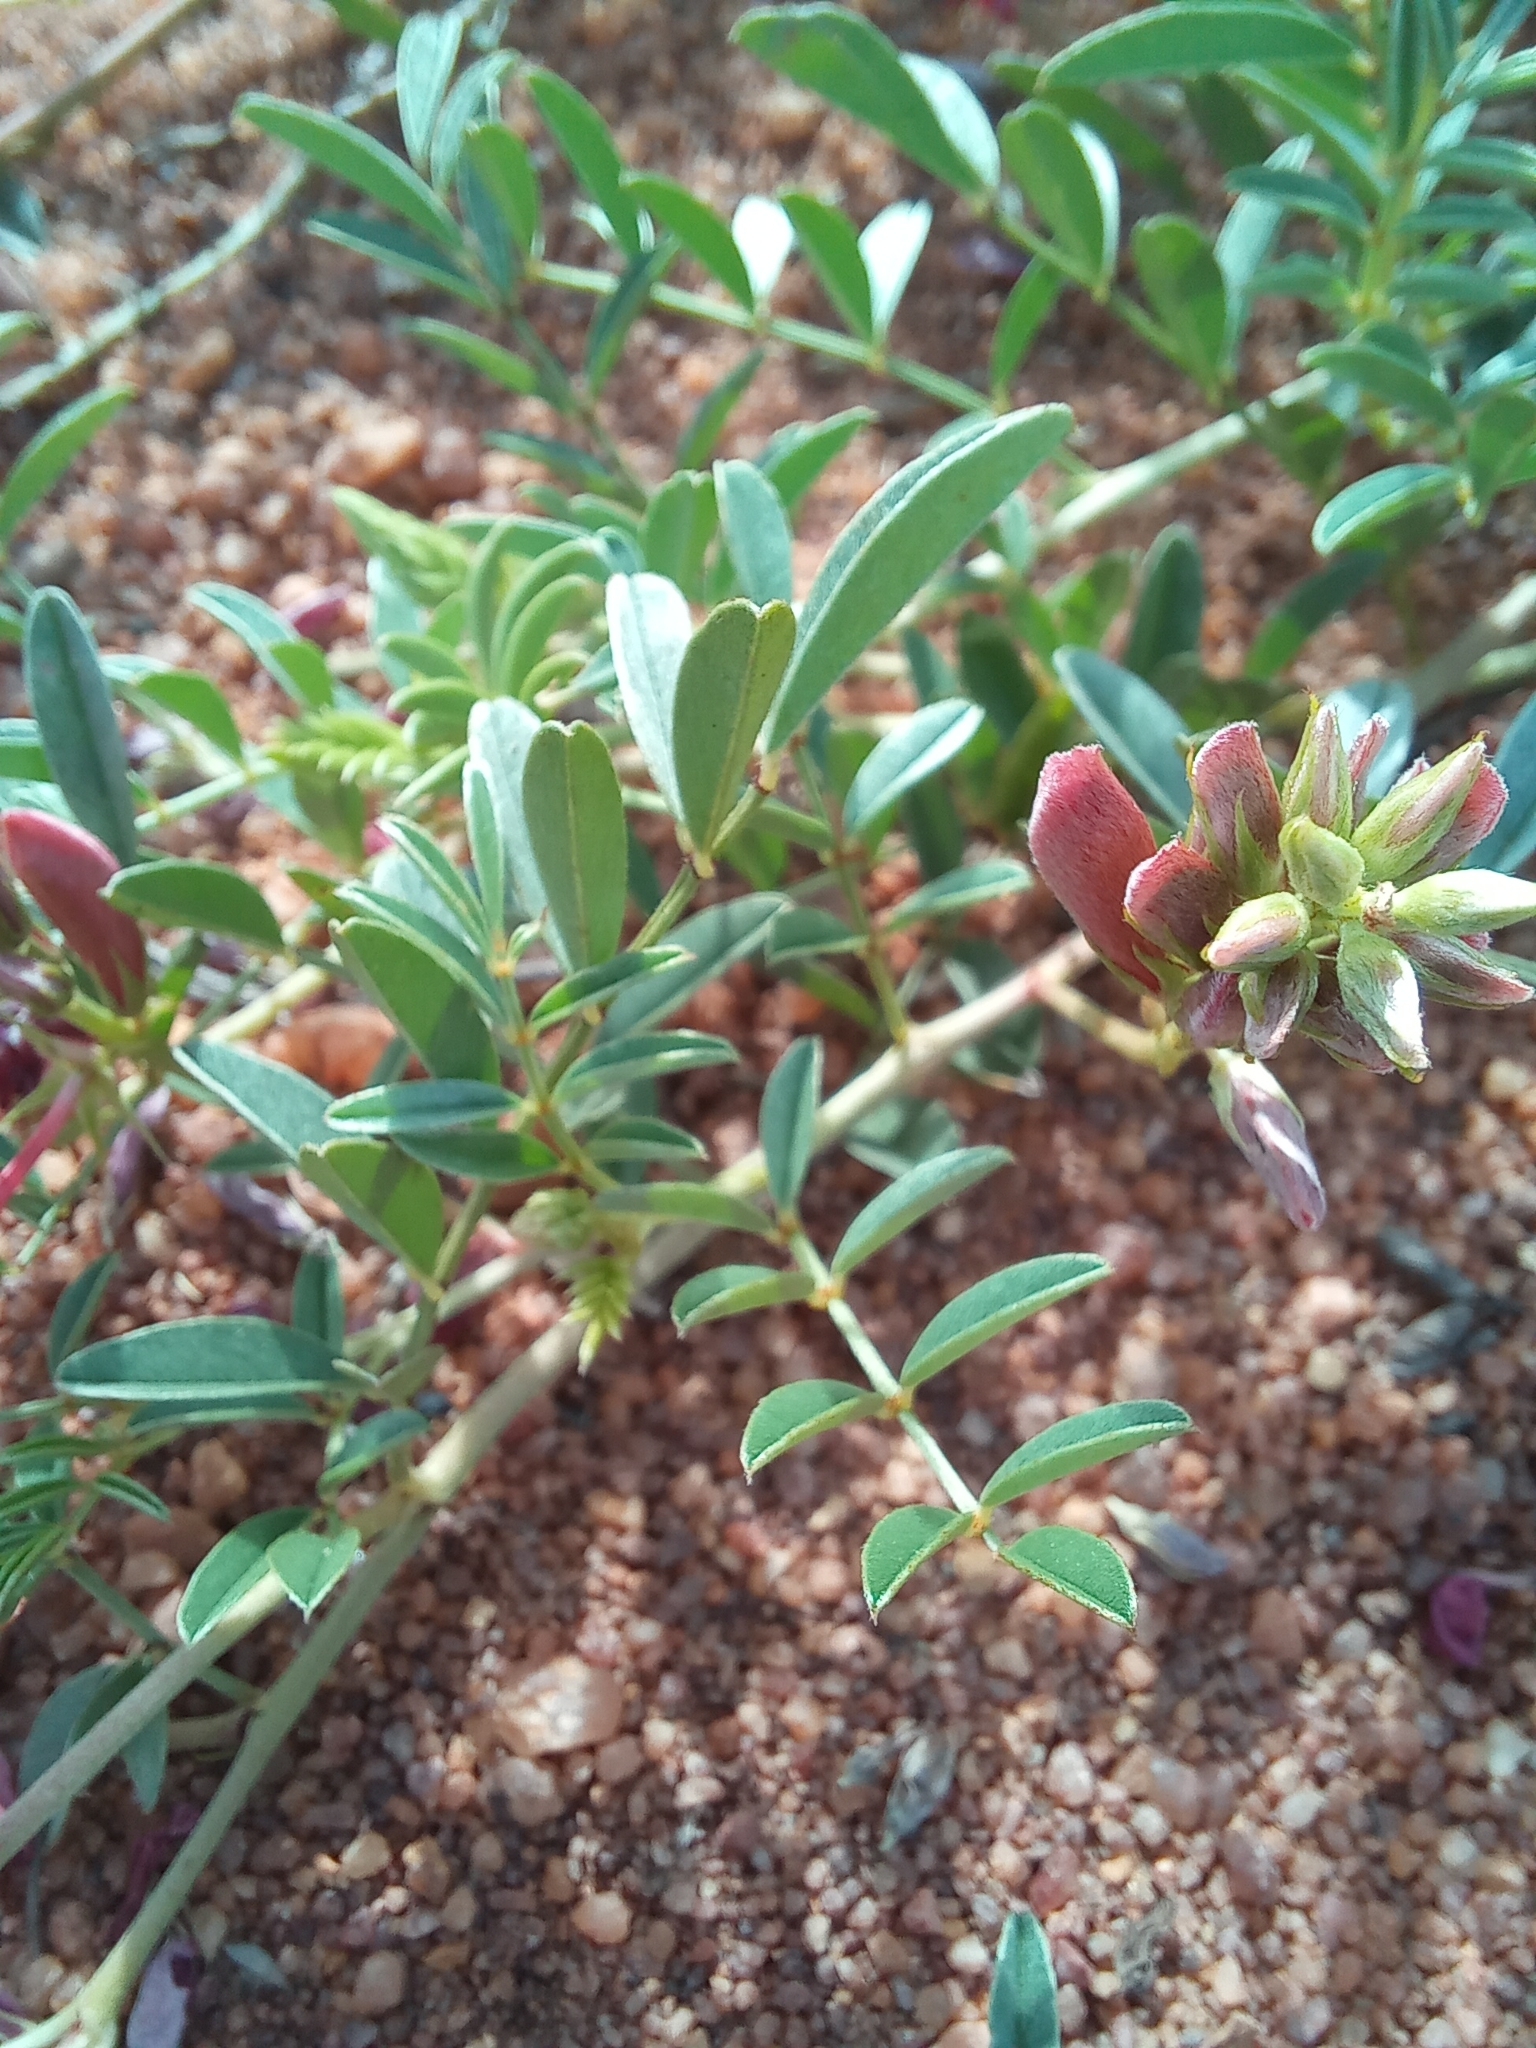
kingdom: Plantae
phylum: Tracheophyta
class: Magnoliopsida
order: Fabales
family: Fabaceae
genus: Indigofera
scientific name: Indigofera pongolana
